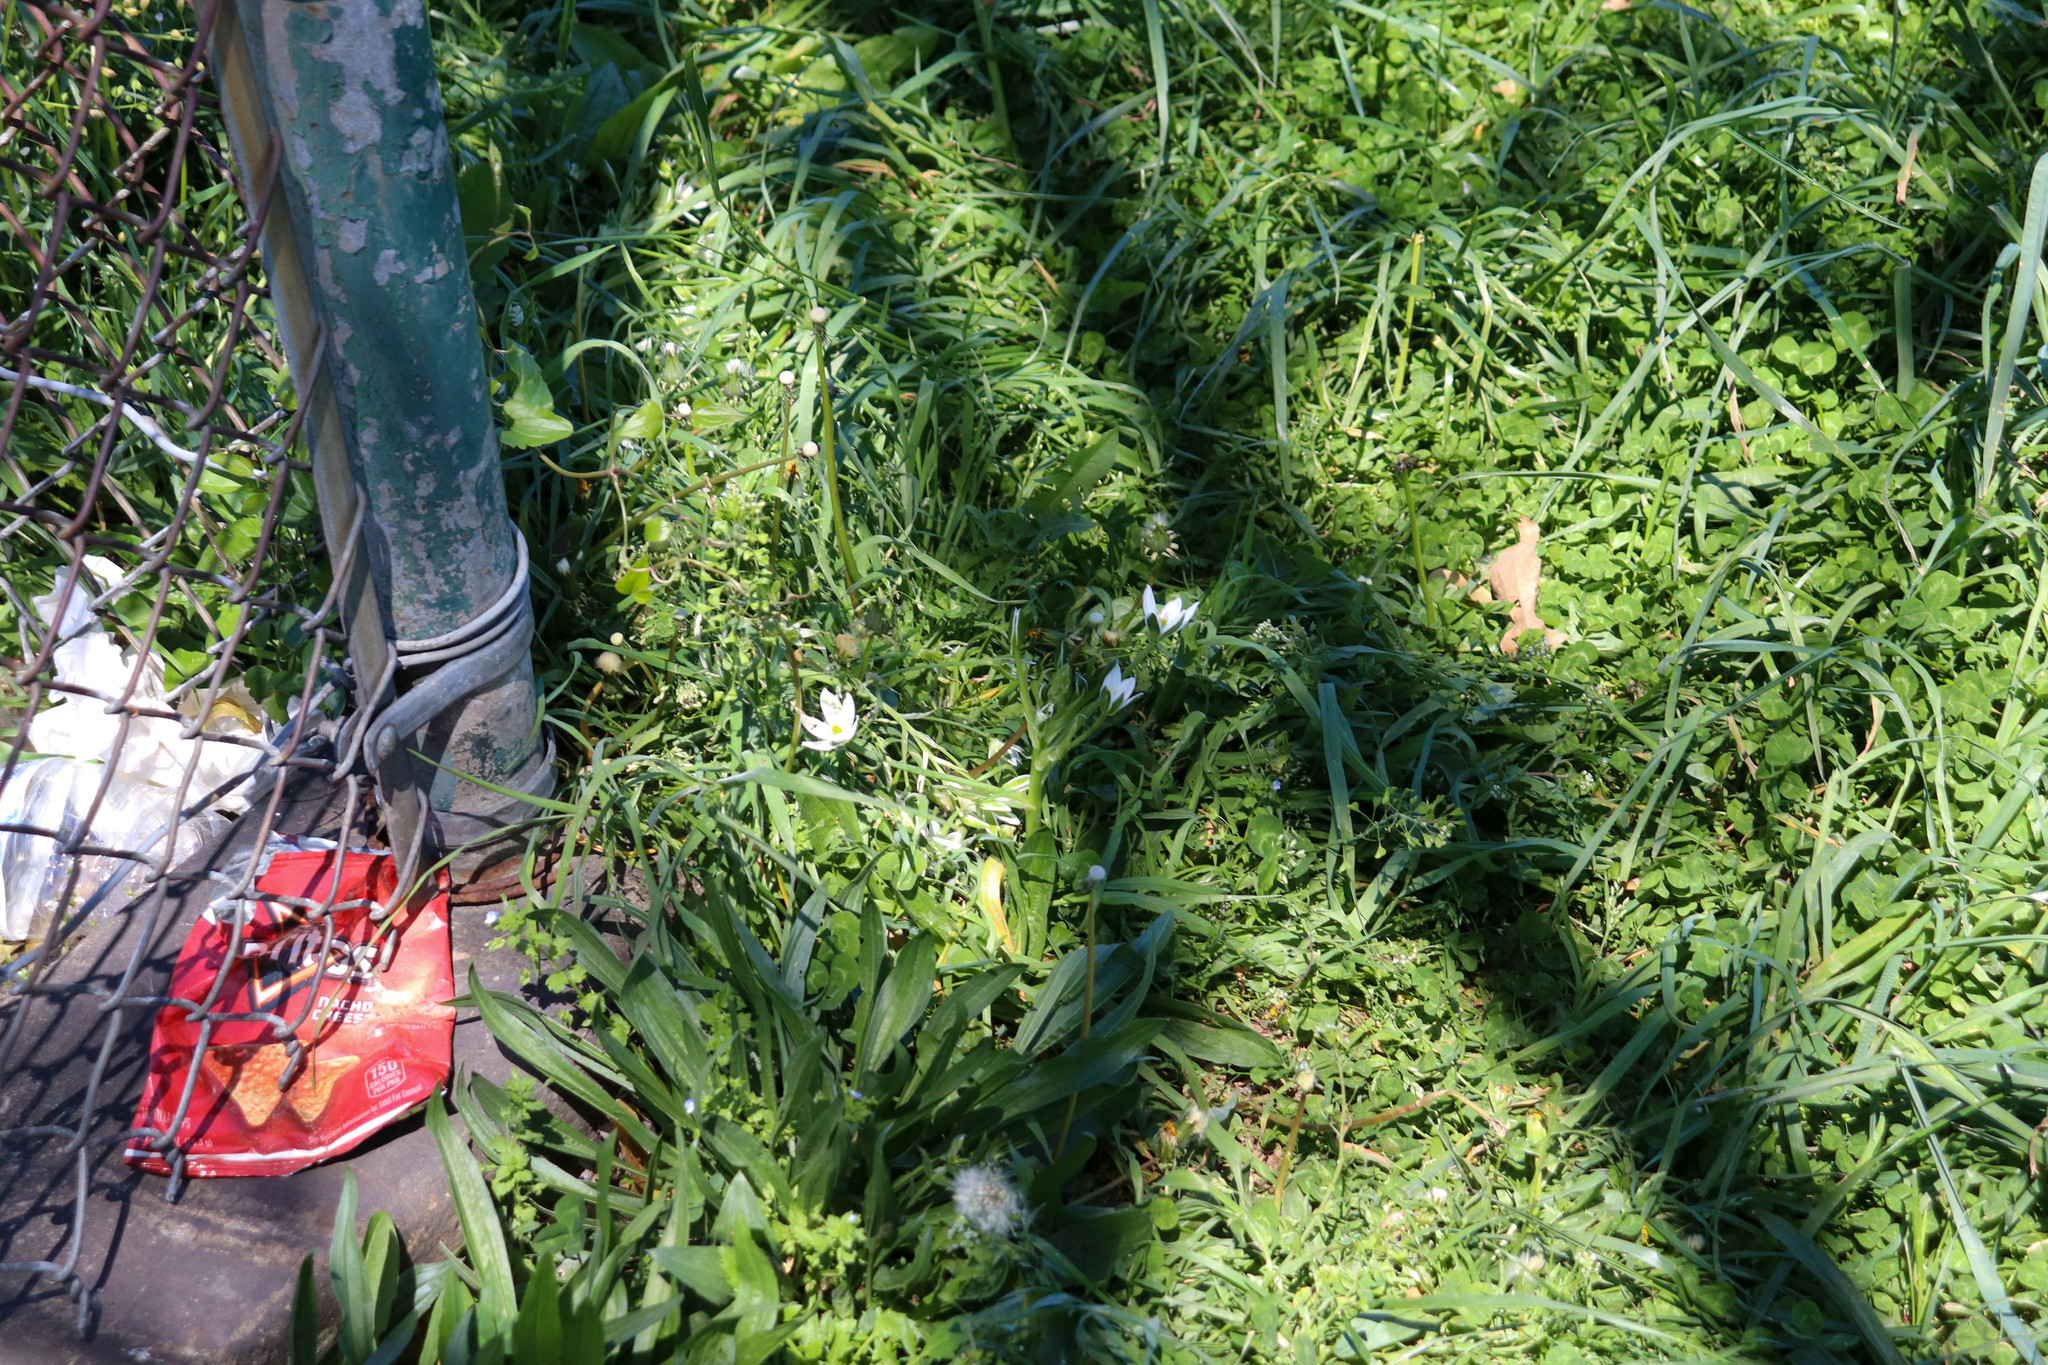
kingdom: Plantae
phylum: Tracheophyta
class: Liliopsida
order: Asparagales
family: Asparagaceae
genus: Ornithogalum
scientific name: Ornithogalum umbellatum
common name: Garden star-of-bethlehem
